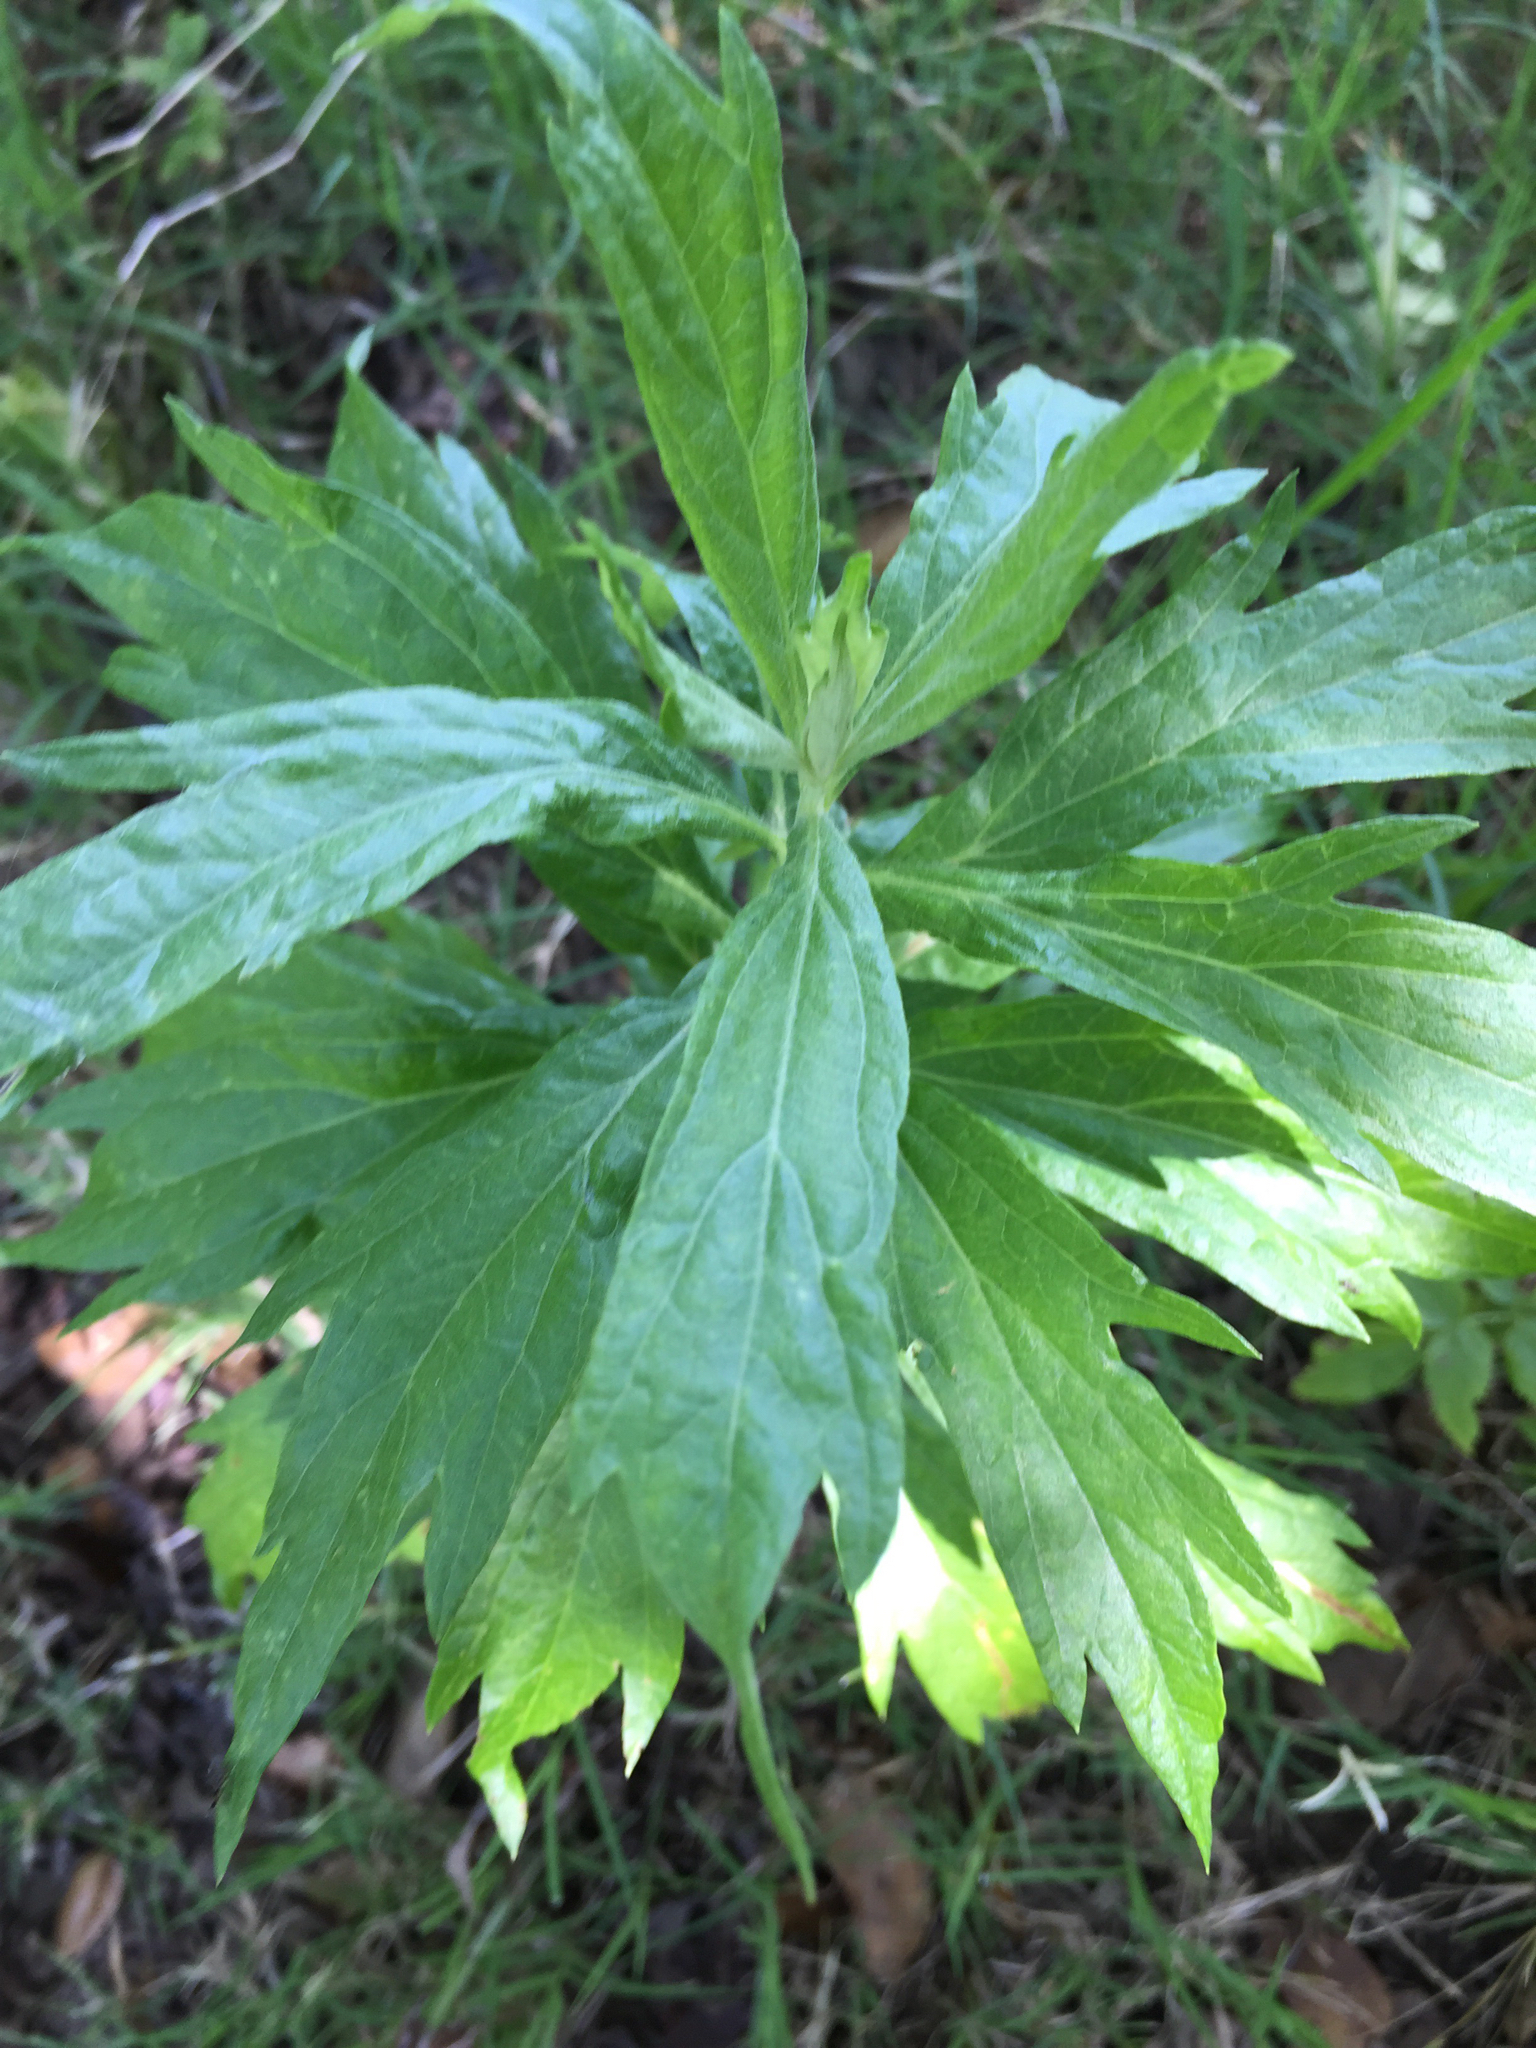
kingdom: Plantae
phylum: Tracheophyta
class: Magnoliopsida
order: Asterales
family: Asteraceae
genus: Artemisia
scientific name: Artemisia douglasiana
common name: Northwest mugwort
